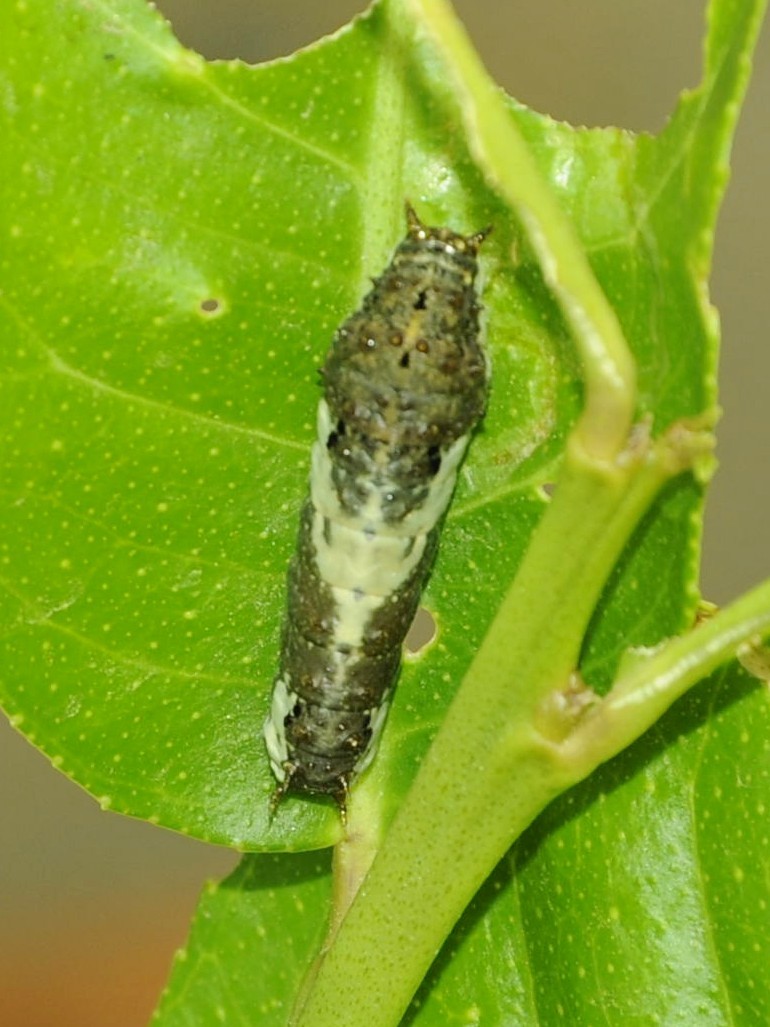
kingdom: Animalia
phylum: Arthropoda
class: Insecta
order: Lepidoptera
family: Papilionidae
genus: Papilio
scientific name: Papilio demoleus
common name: Lime butterfly
